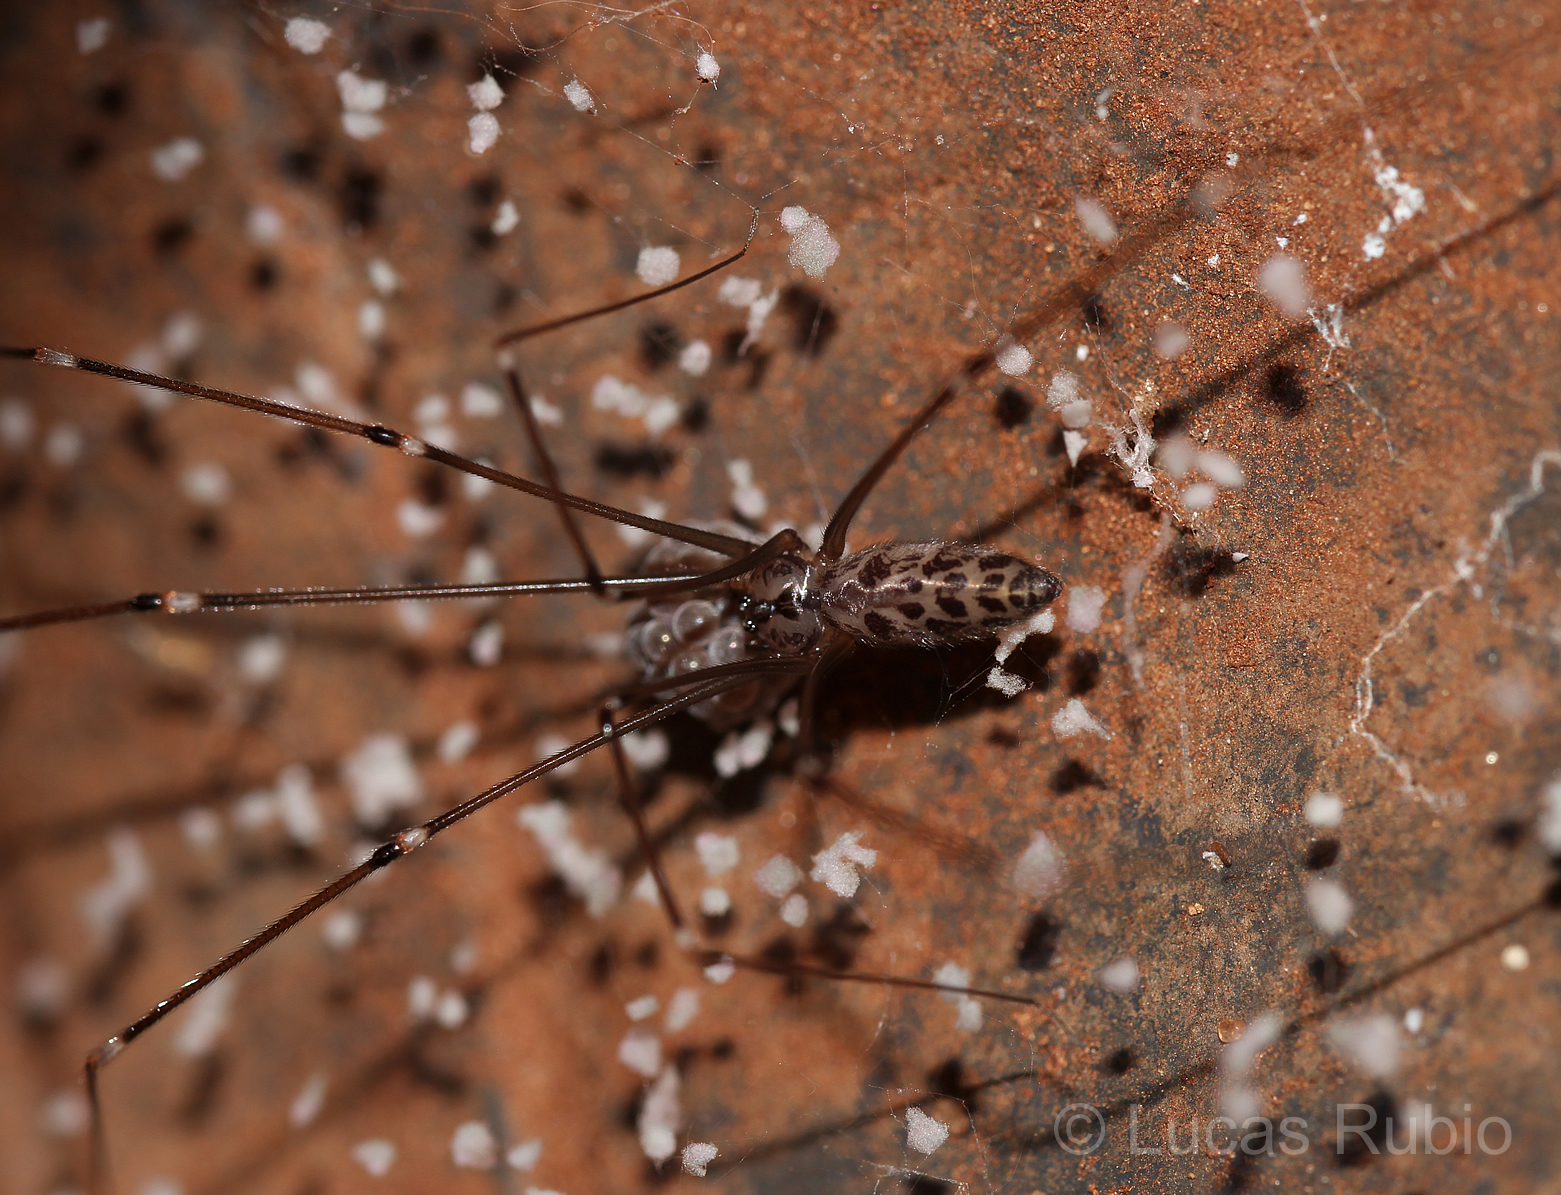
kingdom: Animalia
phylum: Arthropoda
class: Arachnida
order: Araneae
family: Pholcidae
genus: Smeringopus
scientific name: Smeringopus pallidus
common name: Cellar spider
